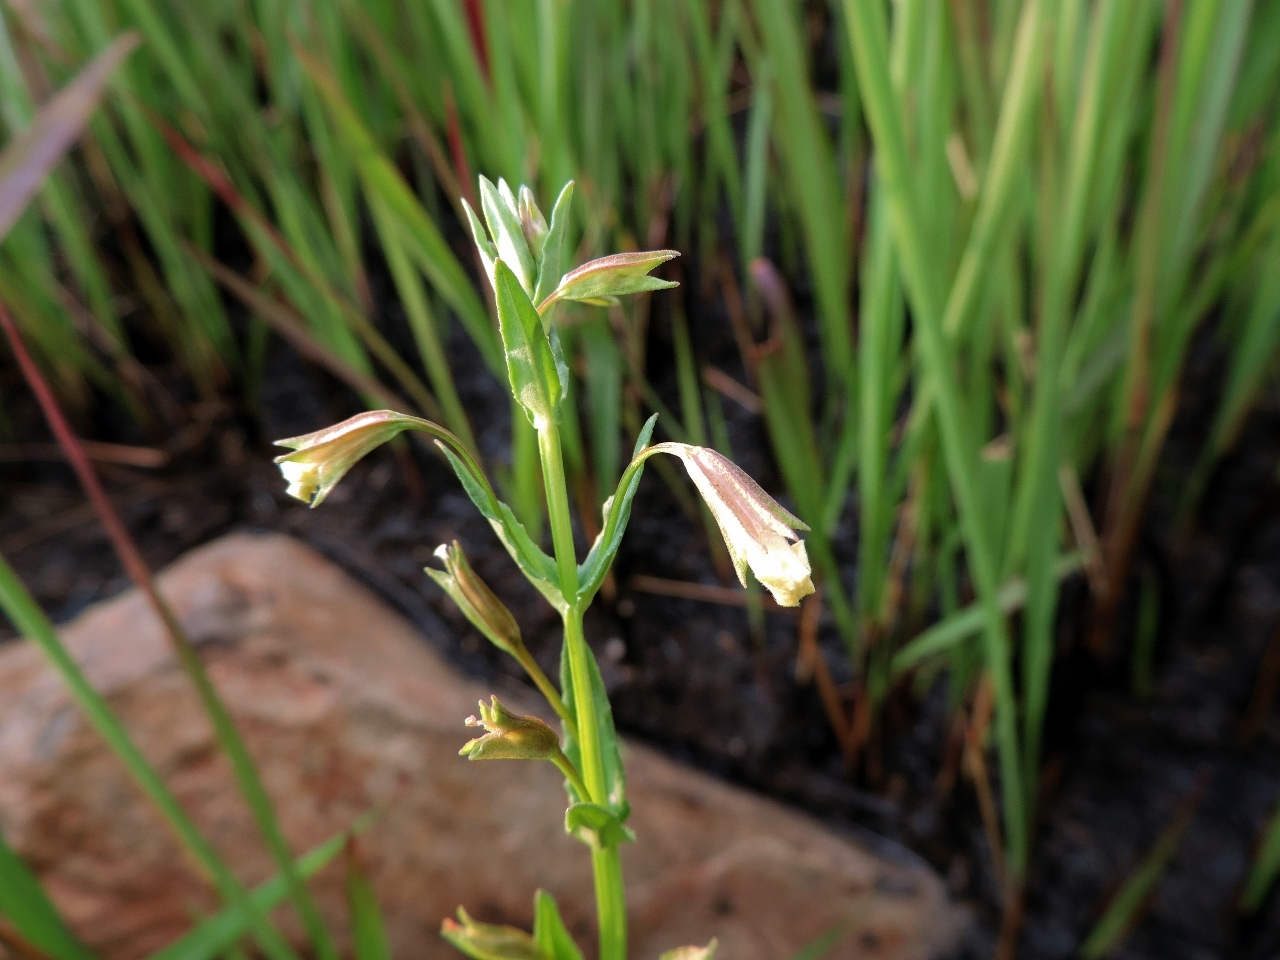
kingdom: Plantae
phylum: Tracheophyta
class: Magnoliopsida
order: Lamiales
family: Phrymaceae
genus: Mimulus
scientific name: Mimulus strictus
